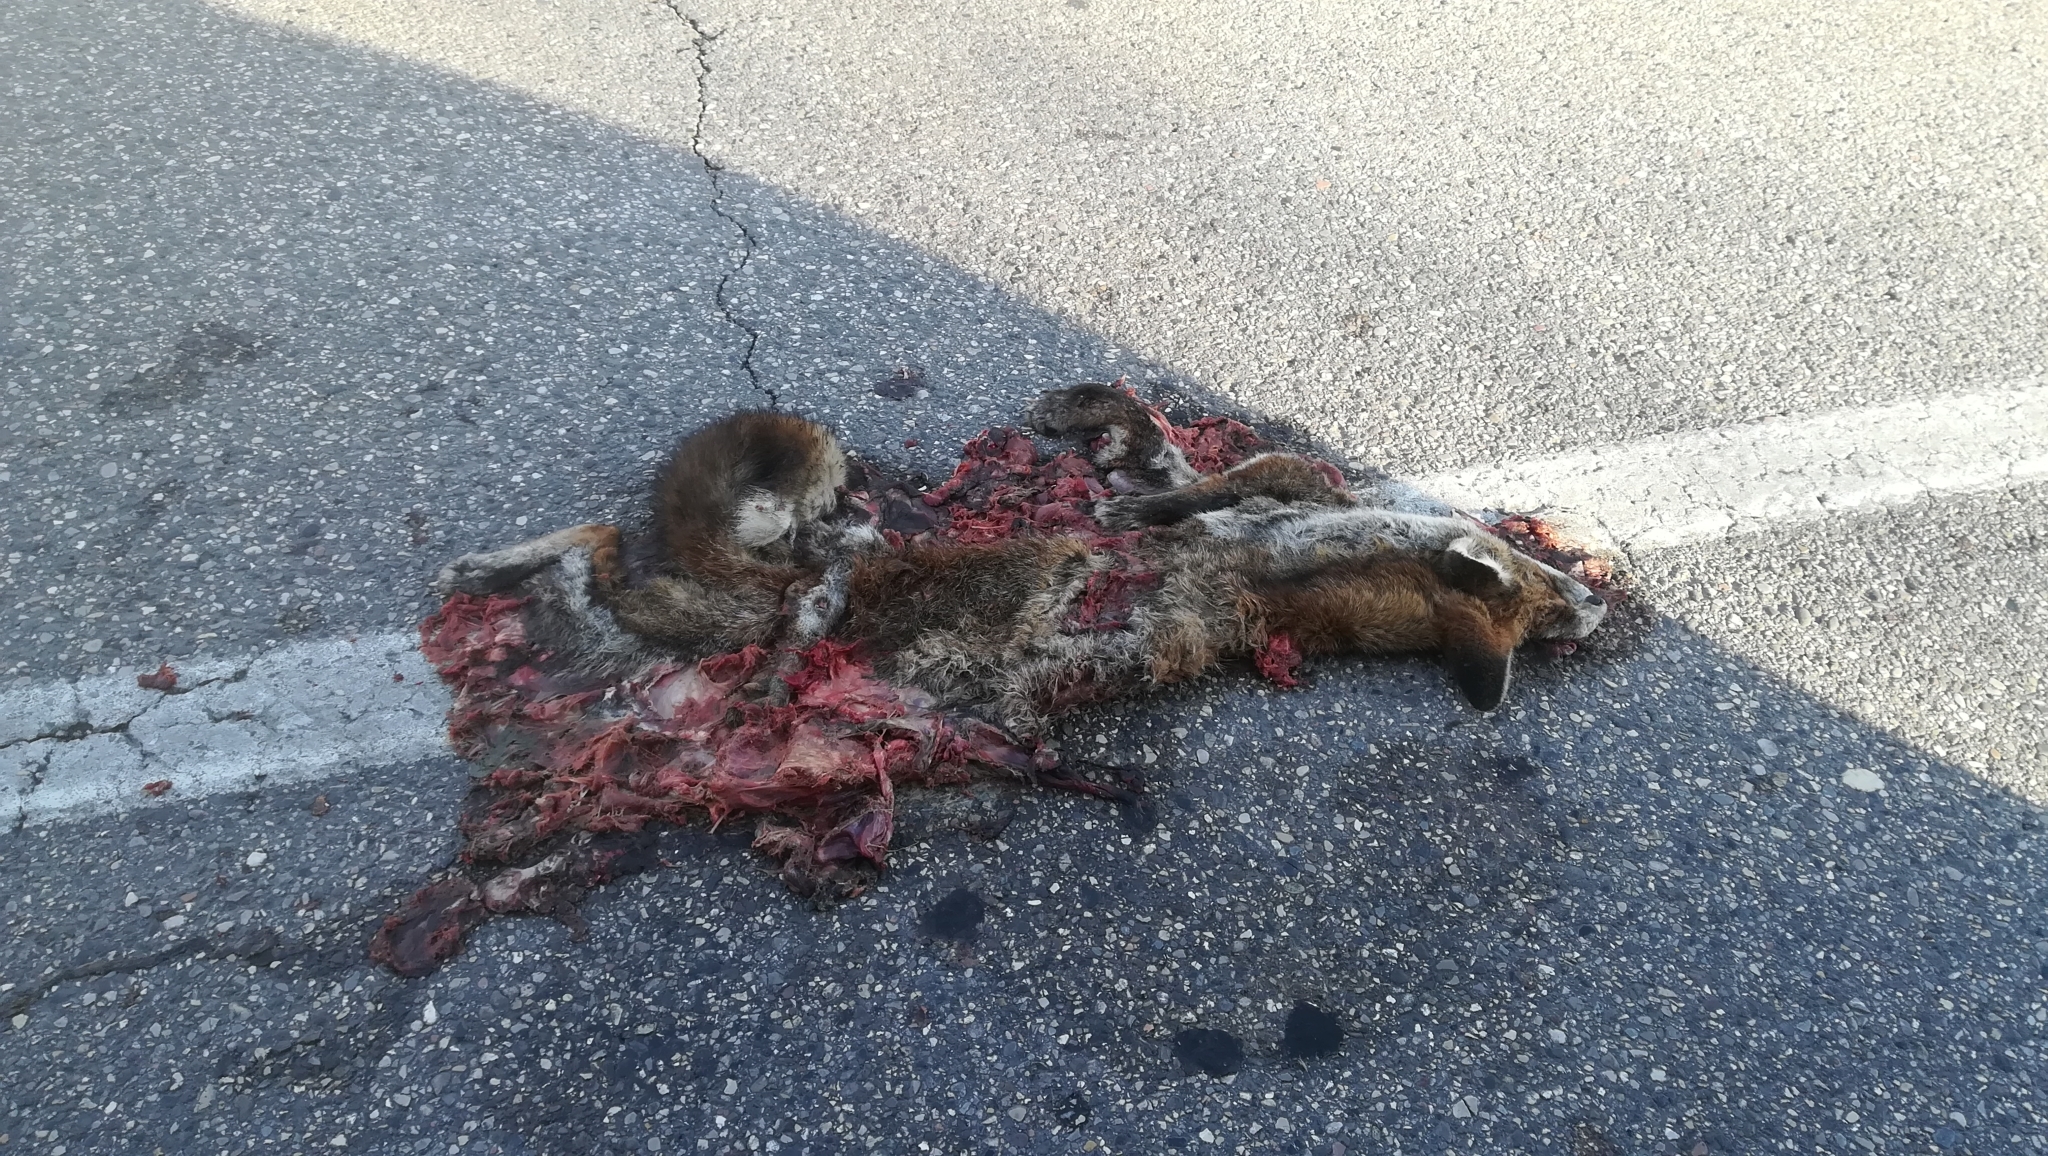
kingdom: Animalia
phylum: Chordata
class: Mammalia
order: Carnivora
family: Canidae
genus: Vulpes
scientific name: Vulpes vulpes
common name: Red fox
